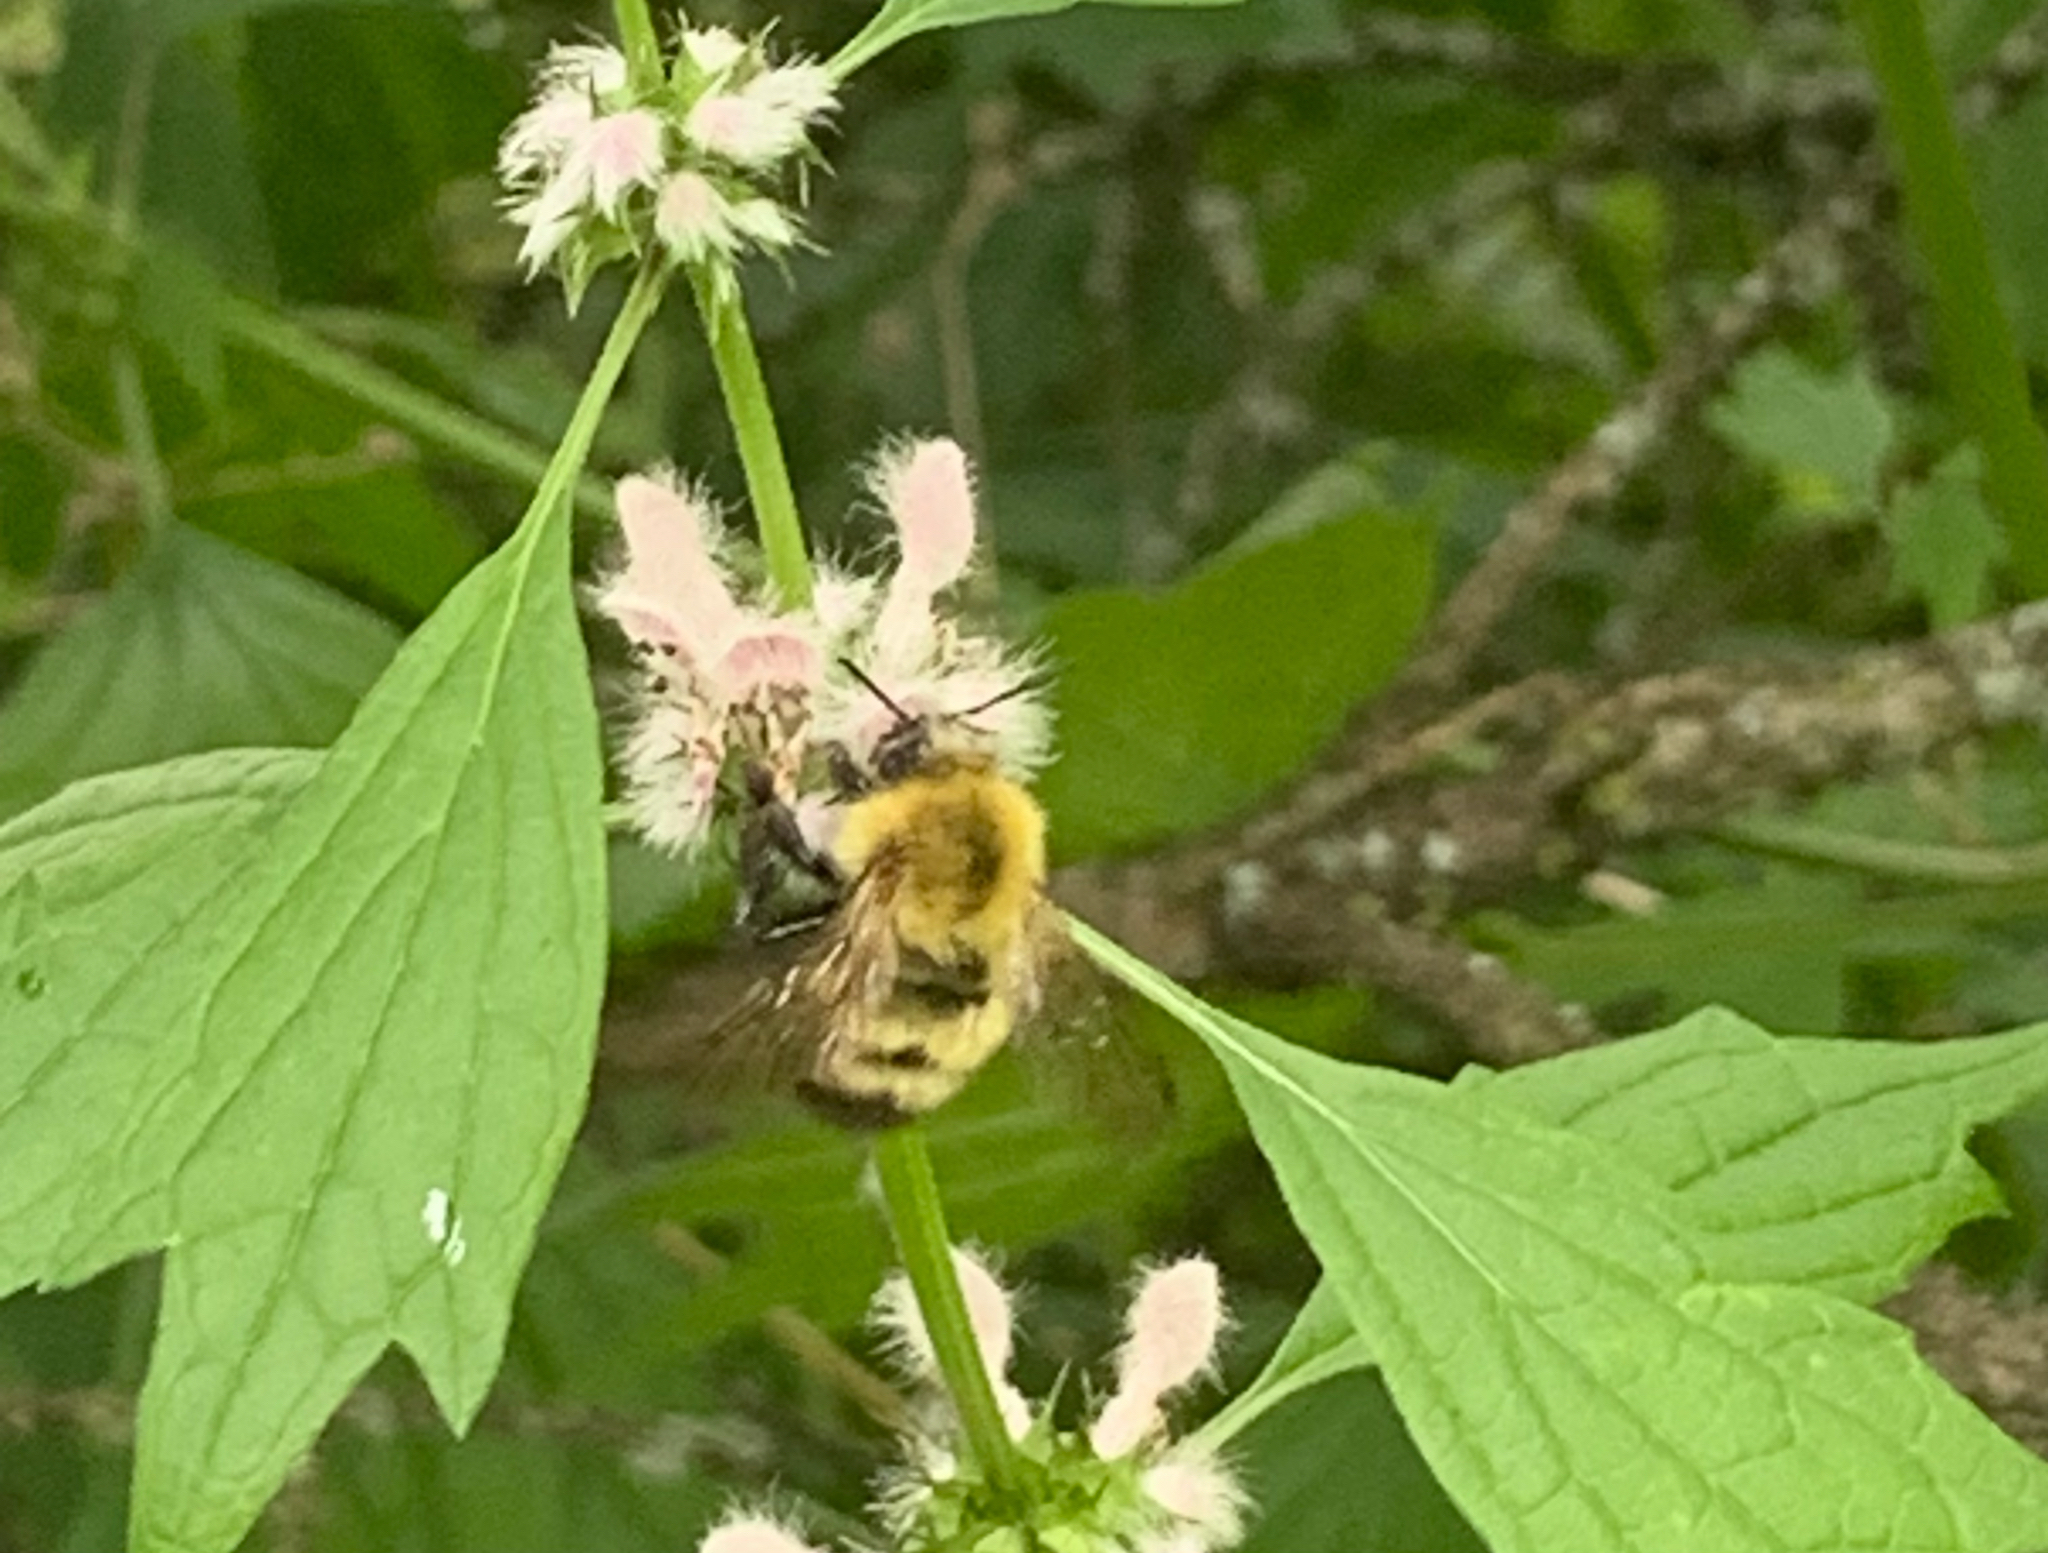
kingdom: Animalia
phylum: Arthropoda
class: Insecta
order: Hymenoptera
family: Apidae
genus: Bombus
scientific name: Bombus perplexus
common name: Confusing bumble bee
